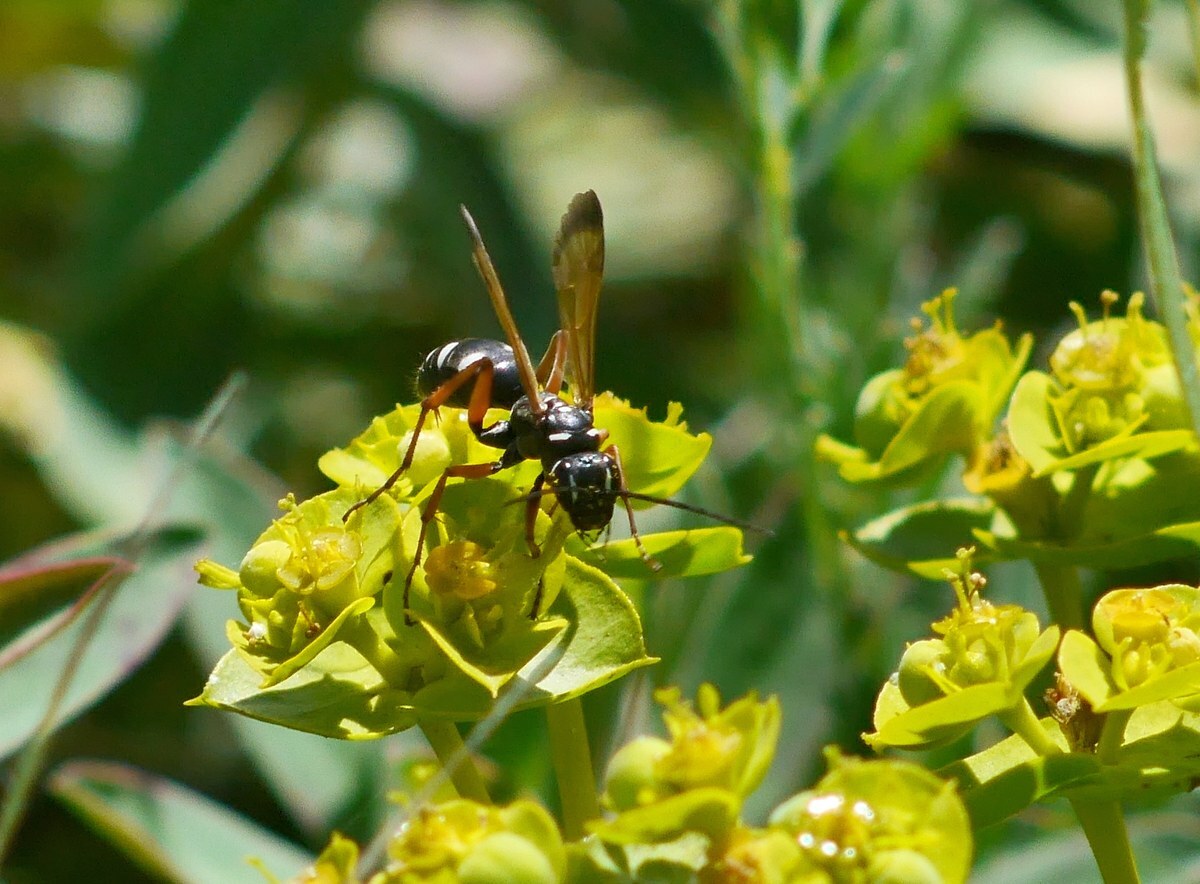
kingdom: Animalia
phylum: Arthropoda
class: Insecta
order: Hymenoptera
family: Pompilidae
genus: Cryptocheilus
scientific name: Cryptocheilus variabilis
